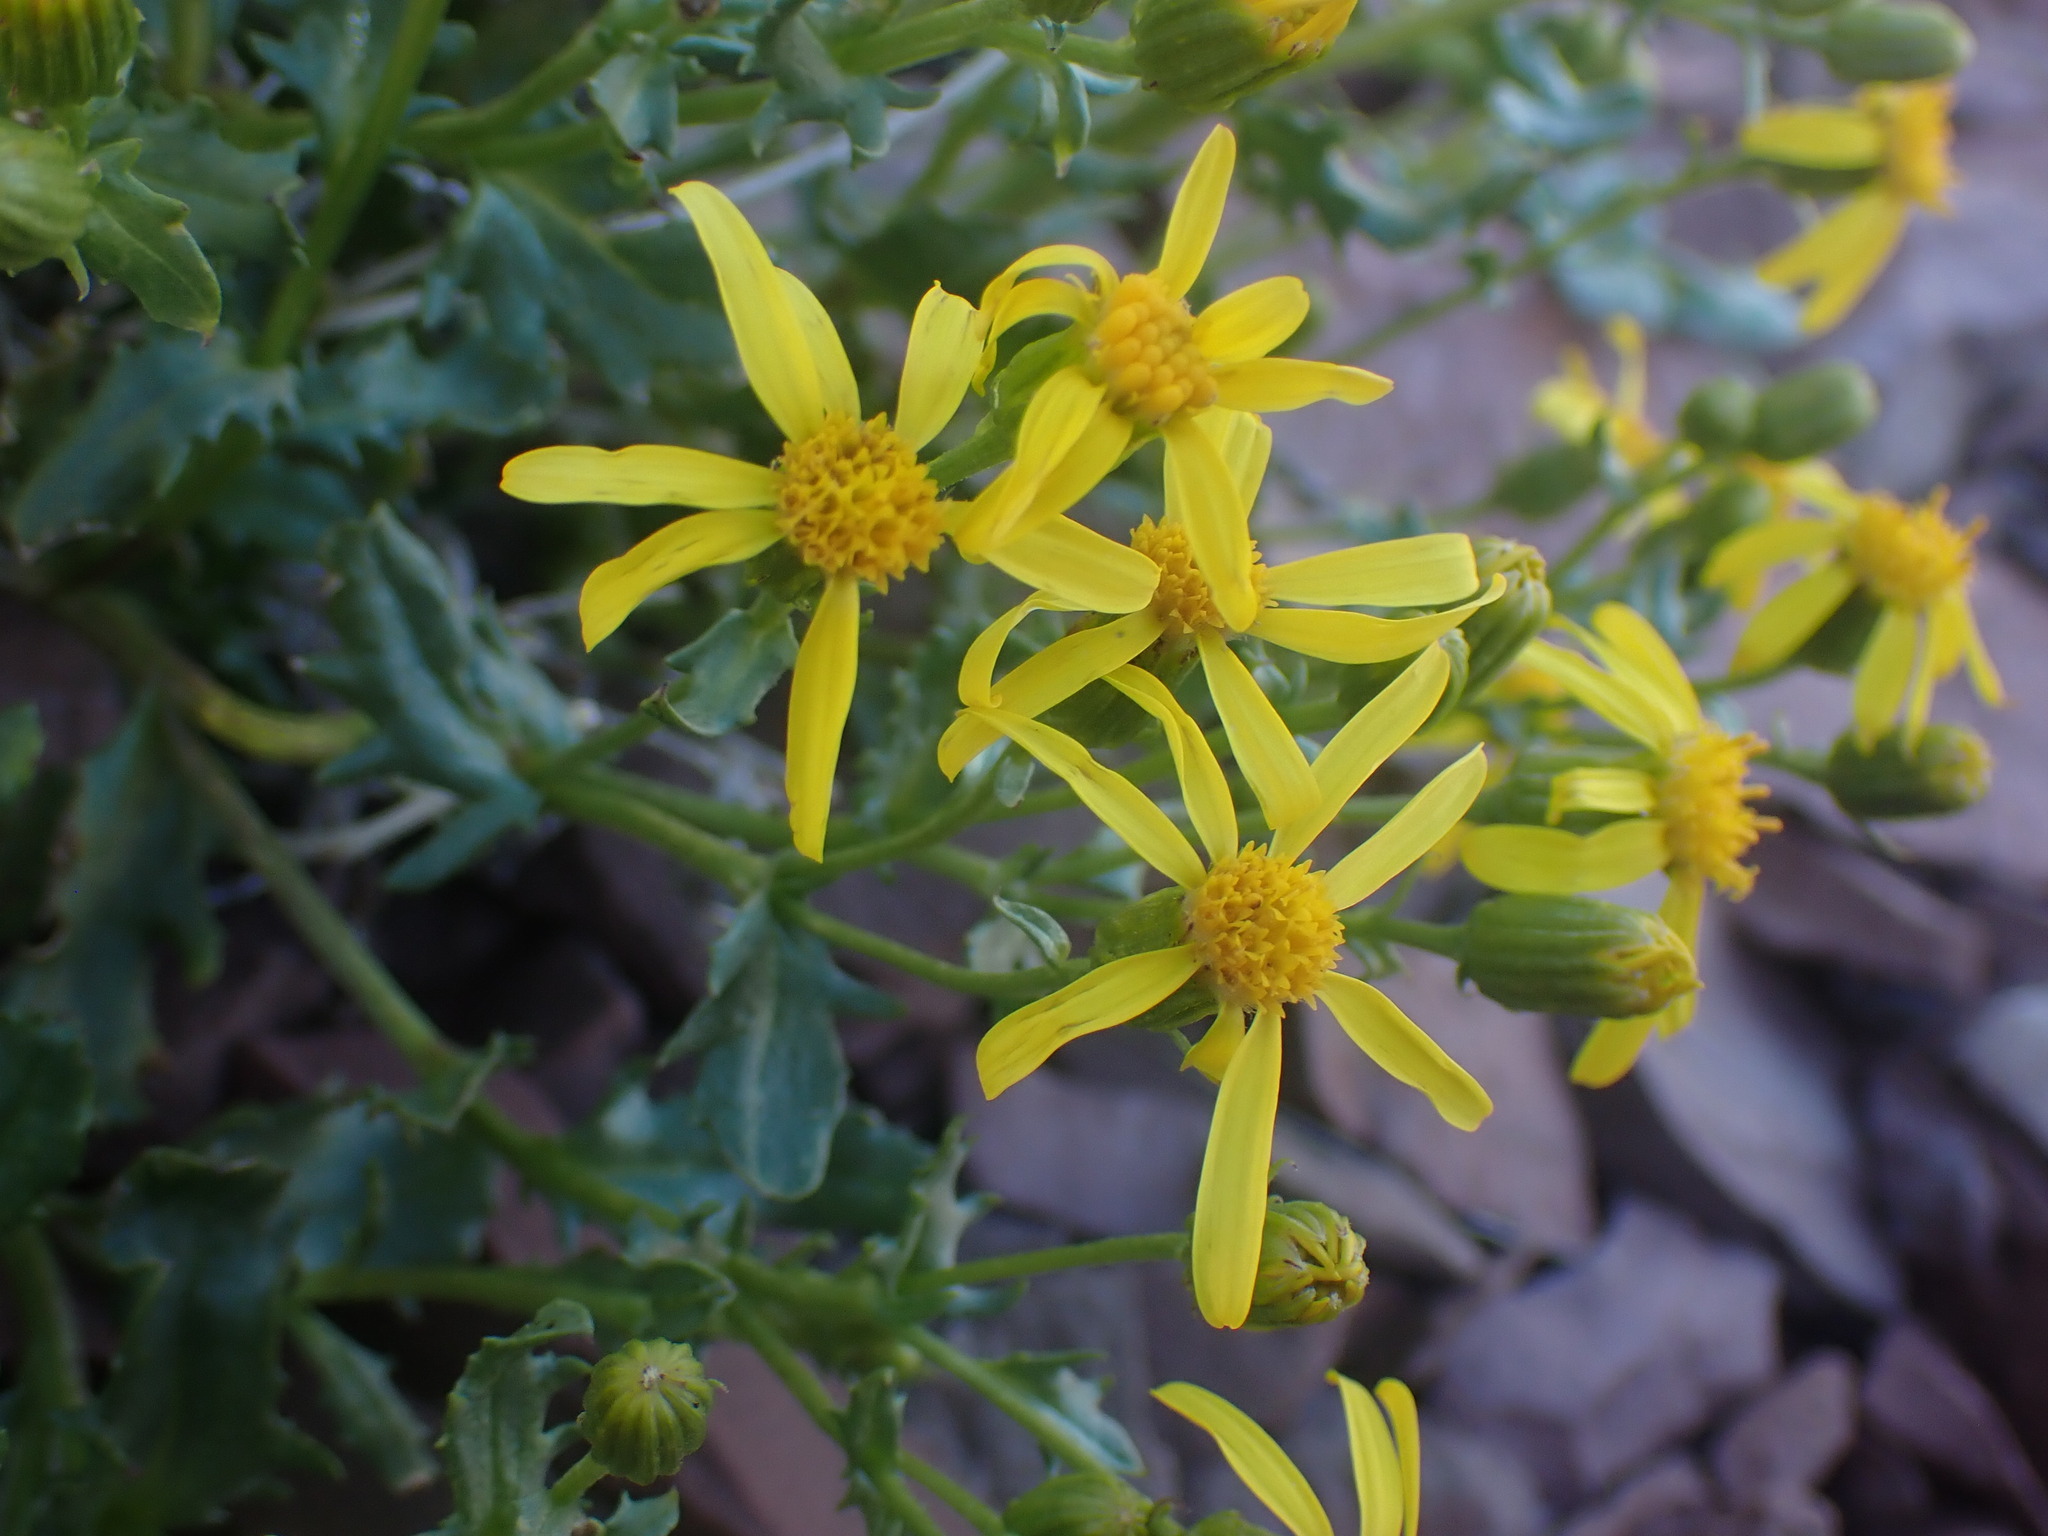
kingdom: Plantae
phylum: Tracheophyta
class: Magnoliopsida
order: Asterales
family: Asteraceae
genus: Senecio
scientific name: Senecio fremontii
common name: Fremont's groundsel
